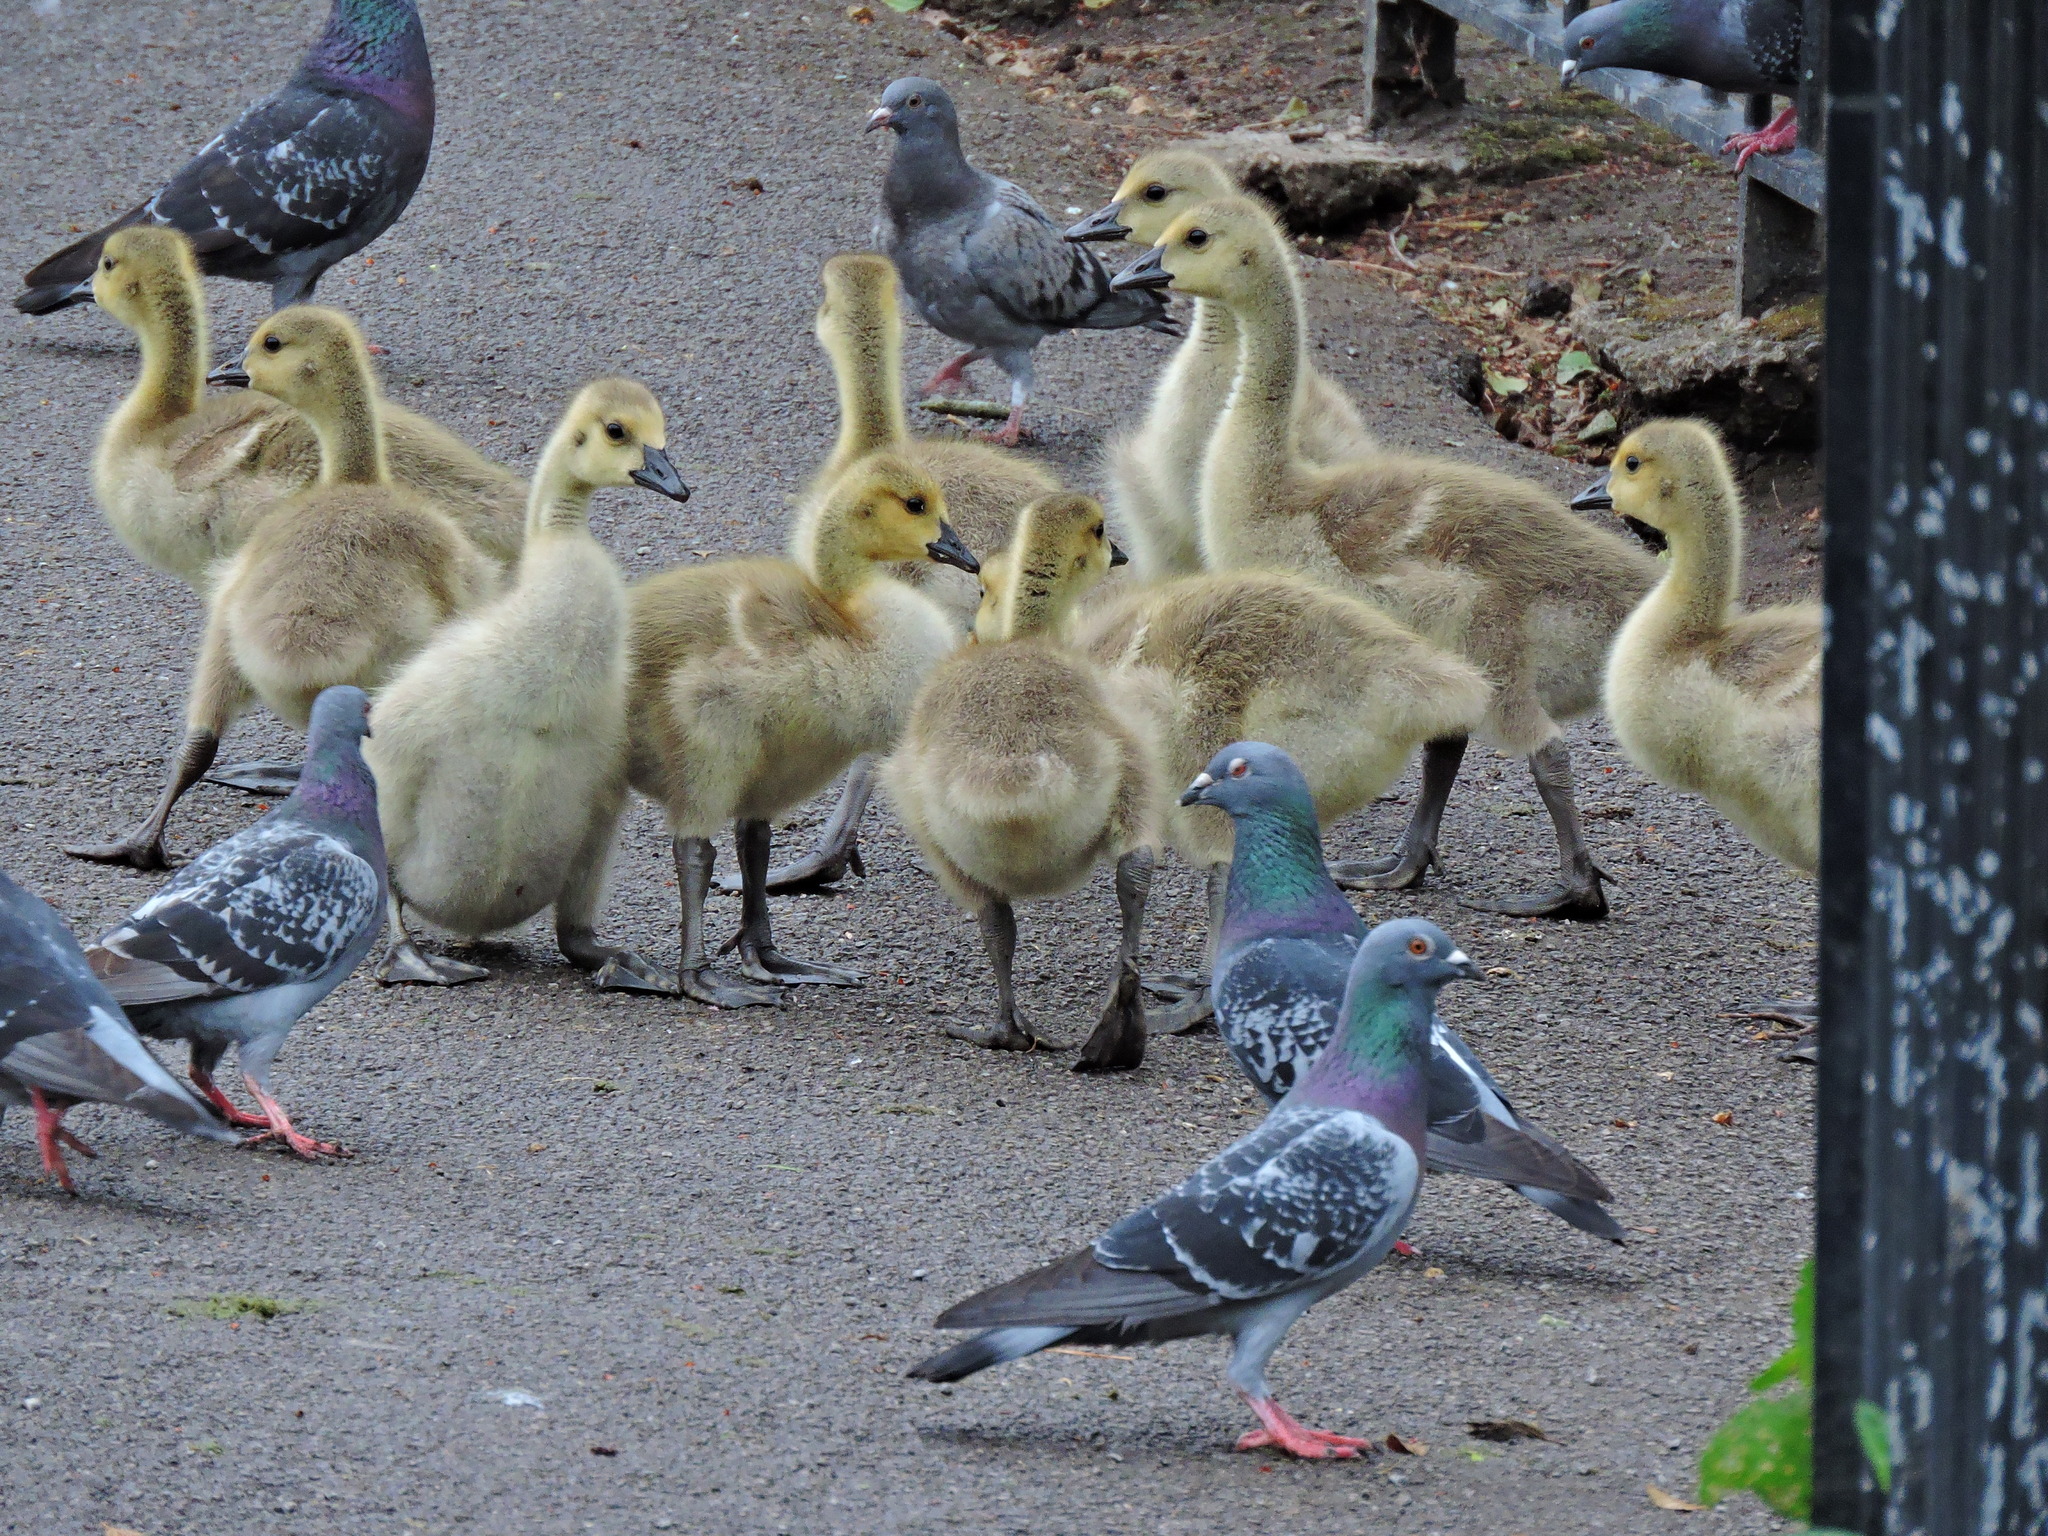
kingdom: Animalia
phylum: Chordata
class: Aves
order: Anseriformes
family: Anatidae
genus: Branta
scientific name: Branta canadensis
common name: Canada goose
